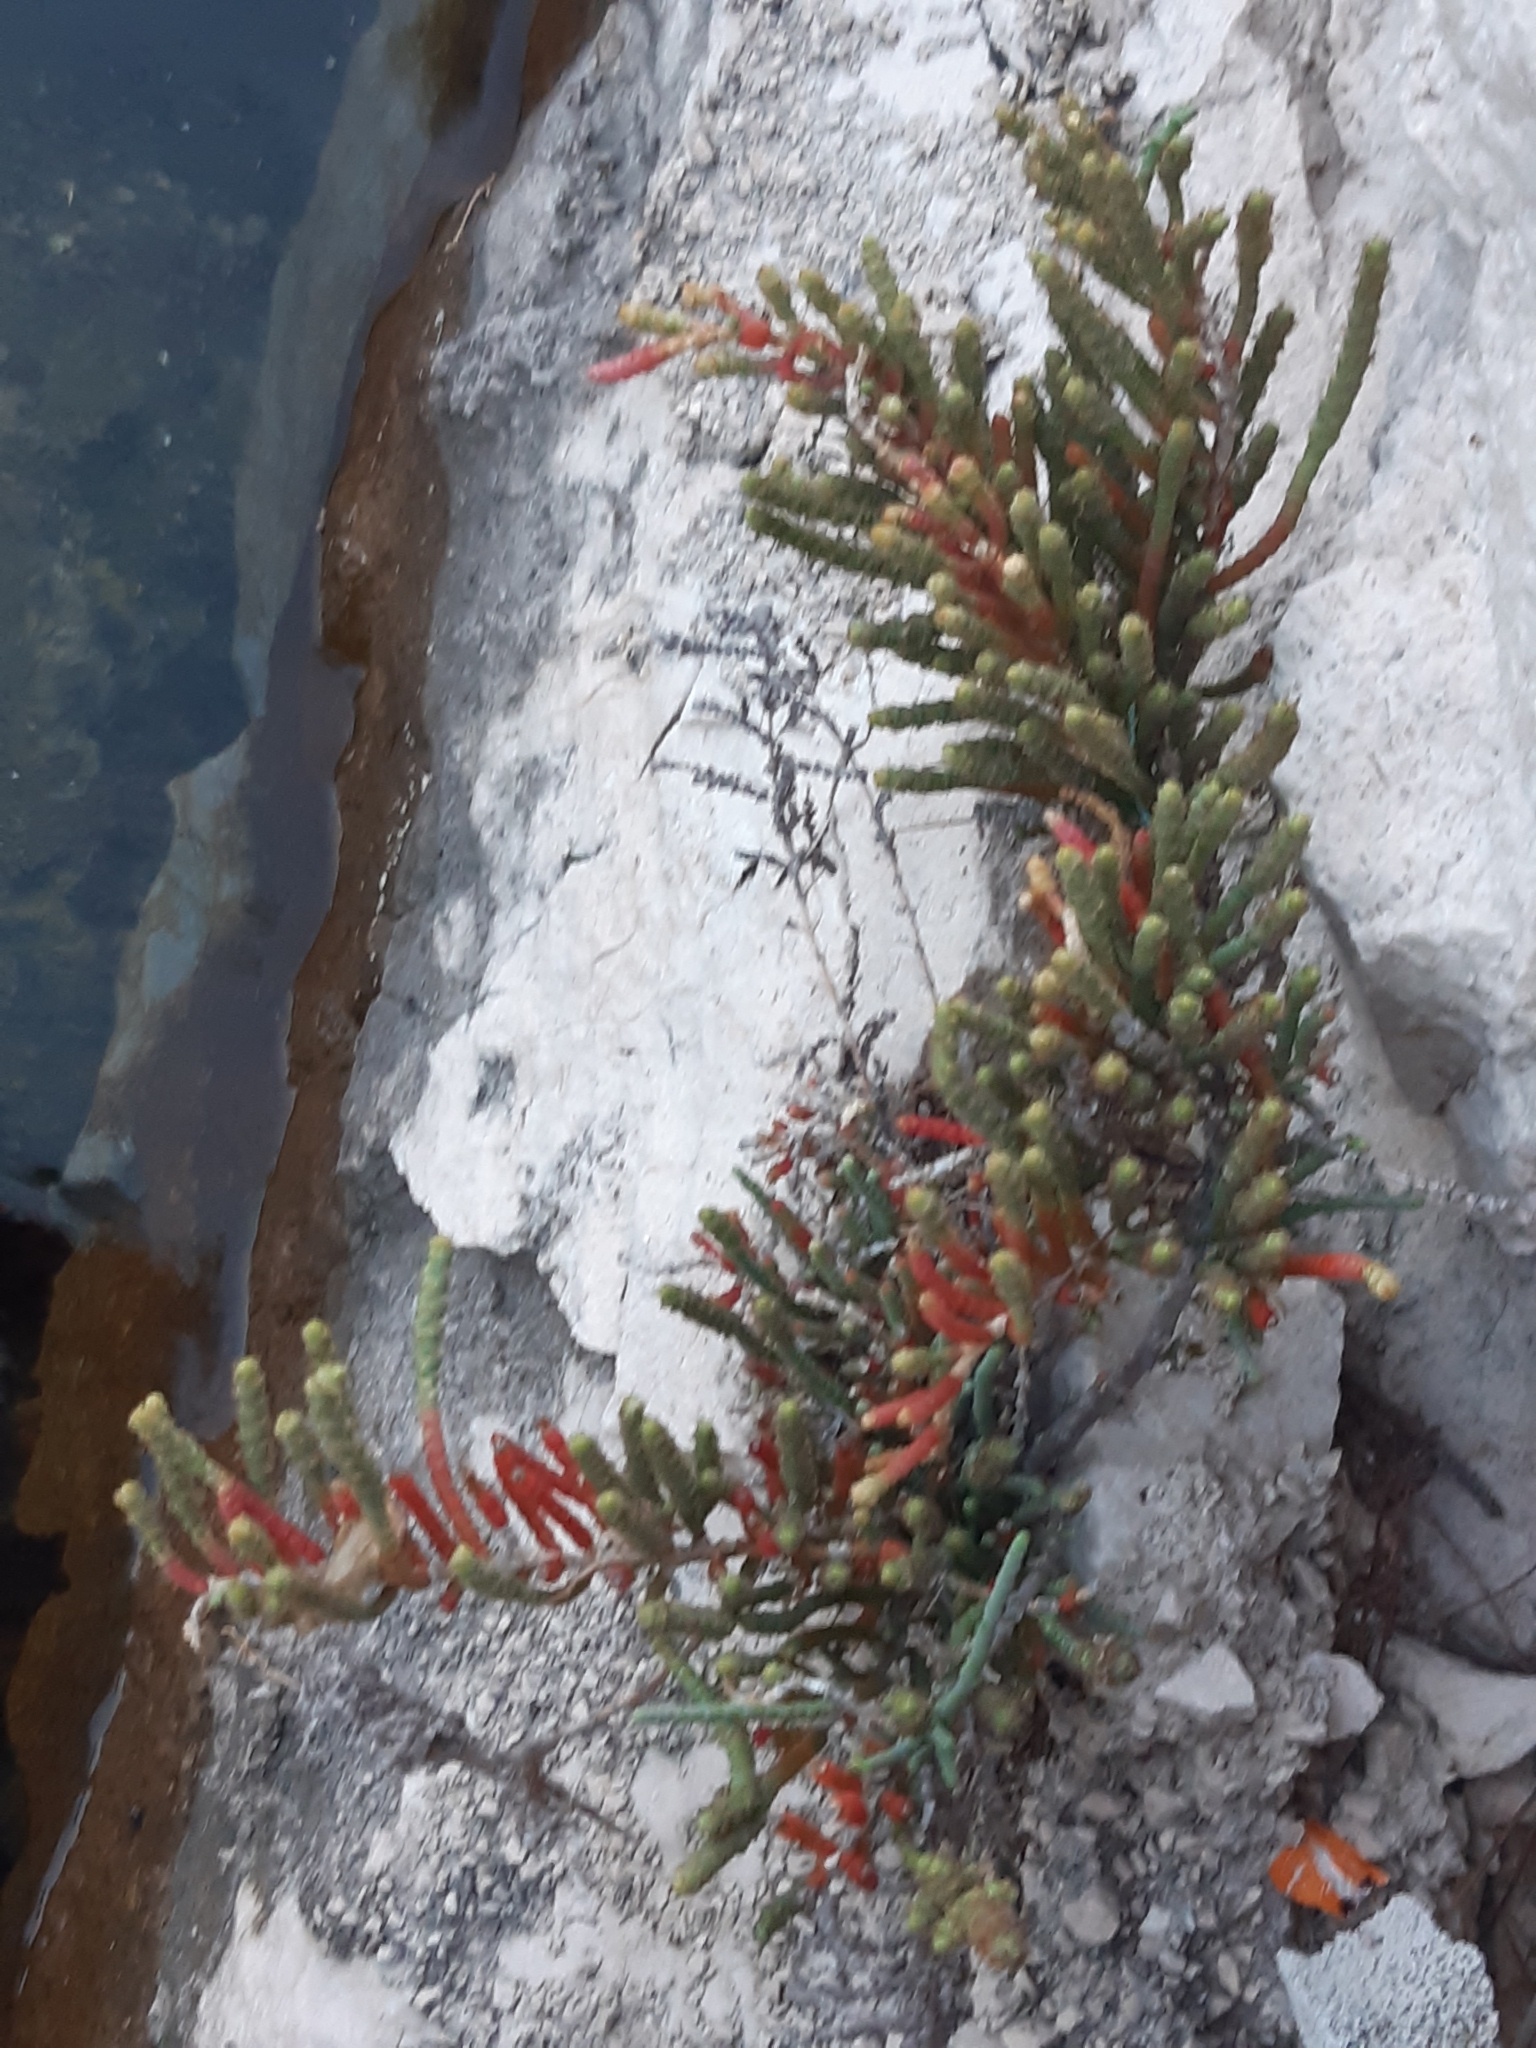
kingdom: Plantae
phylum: Tracheophyta
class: Magnoliopsida
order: Caryophyllales
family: Amaranthaceae
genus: Arthrocaulon
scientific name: Arthrocaulon macrostachyum
